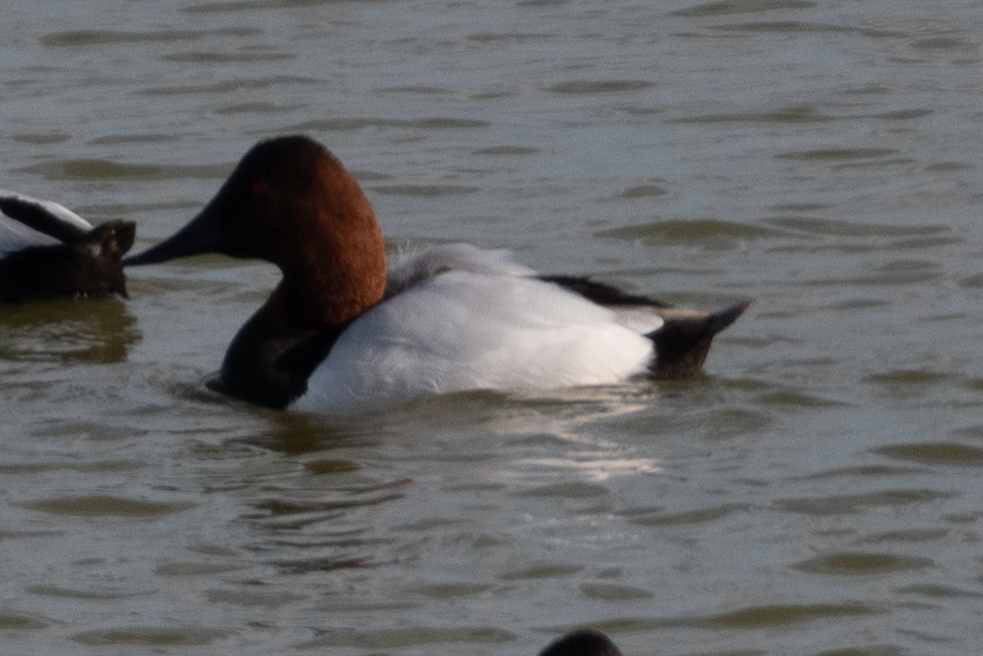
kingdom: Animalia
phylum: Chordata
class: Aves
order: Anseriformes
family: Anatidae
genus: Aythya
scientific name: Aythya valisineria
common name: Canvasback
